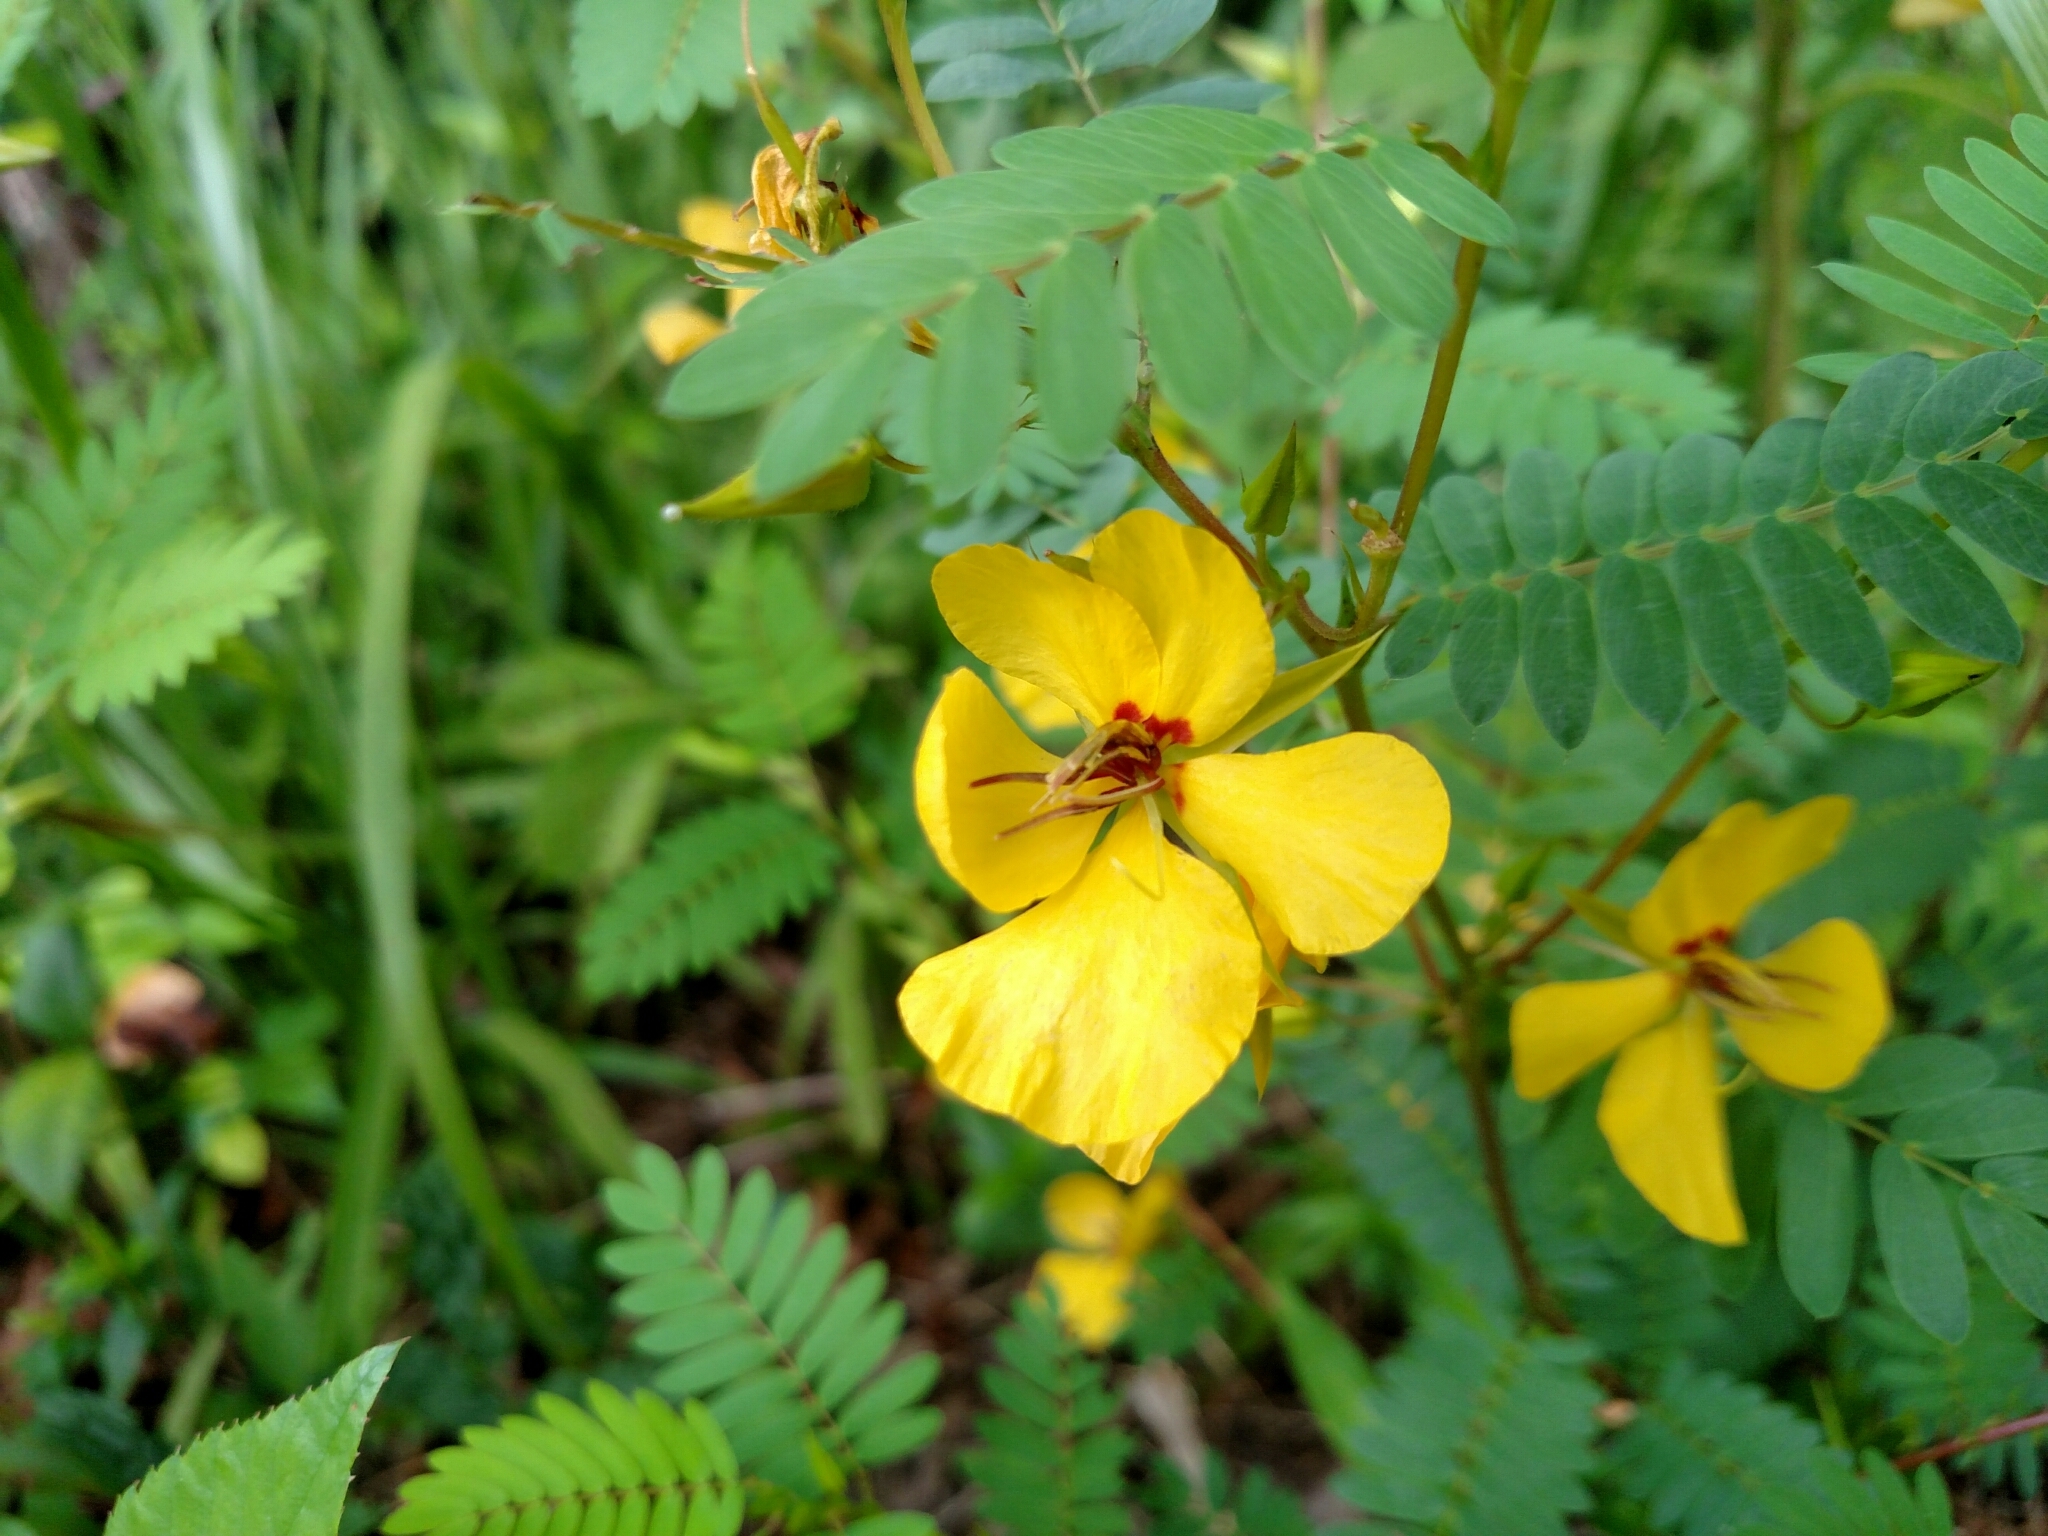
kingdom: Plantae
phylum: Tracheophyta
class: Magnoliopsida
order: Fabales
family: Fabaceae
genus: Chamaecrista
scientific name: Chamaecrista fasciculata
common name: Golden cassia
